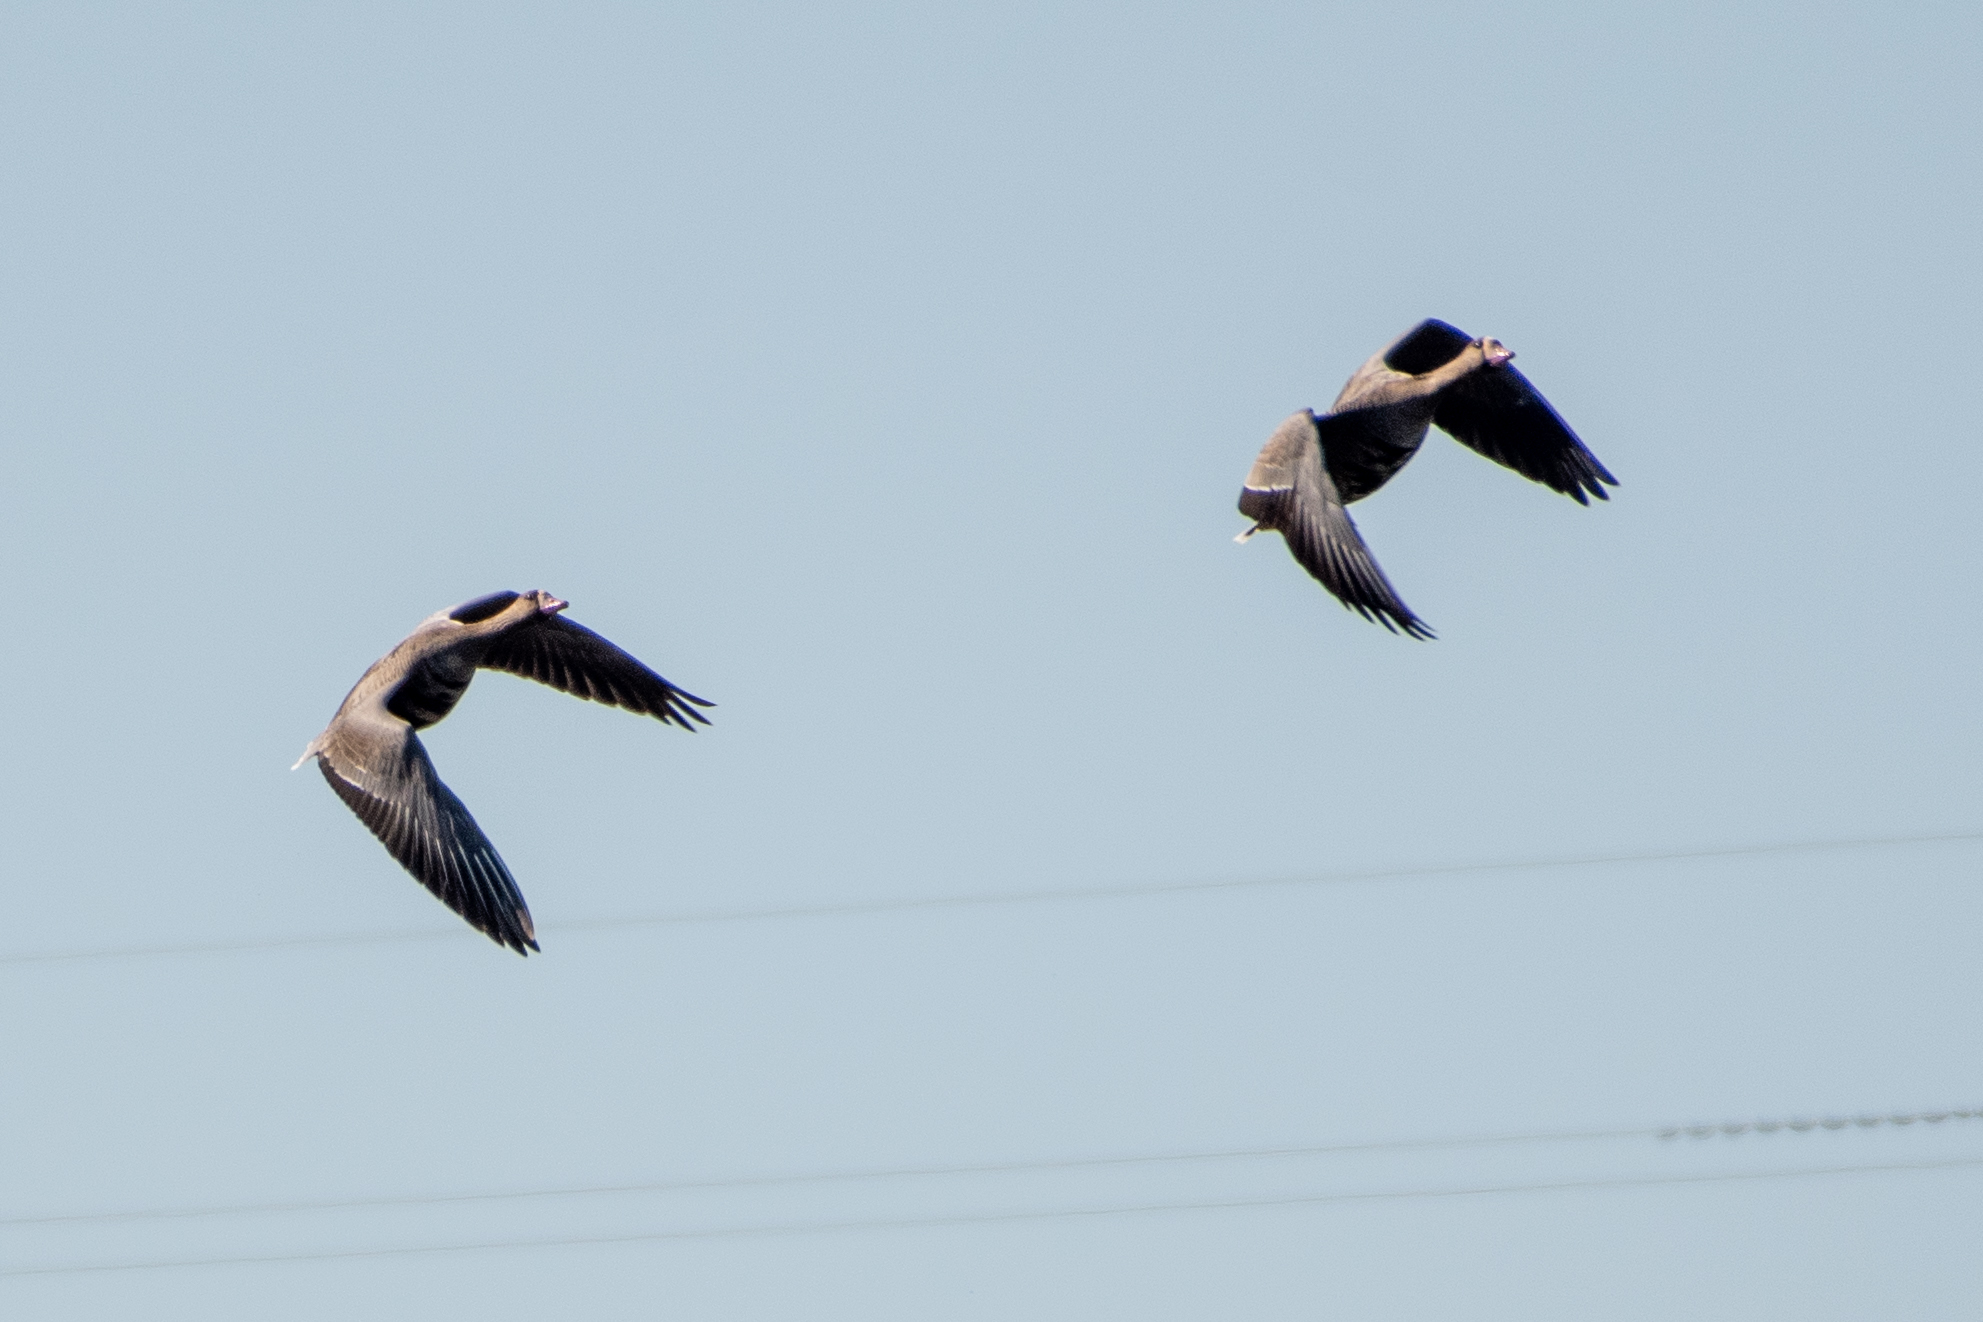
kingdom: Animalia
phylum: Chordata
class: Aves
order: Anseriformes
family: Anatidae
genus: Anser
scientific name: Anser albifrons
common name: Greater white-fronted goose
